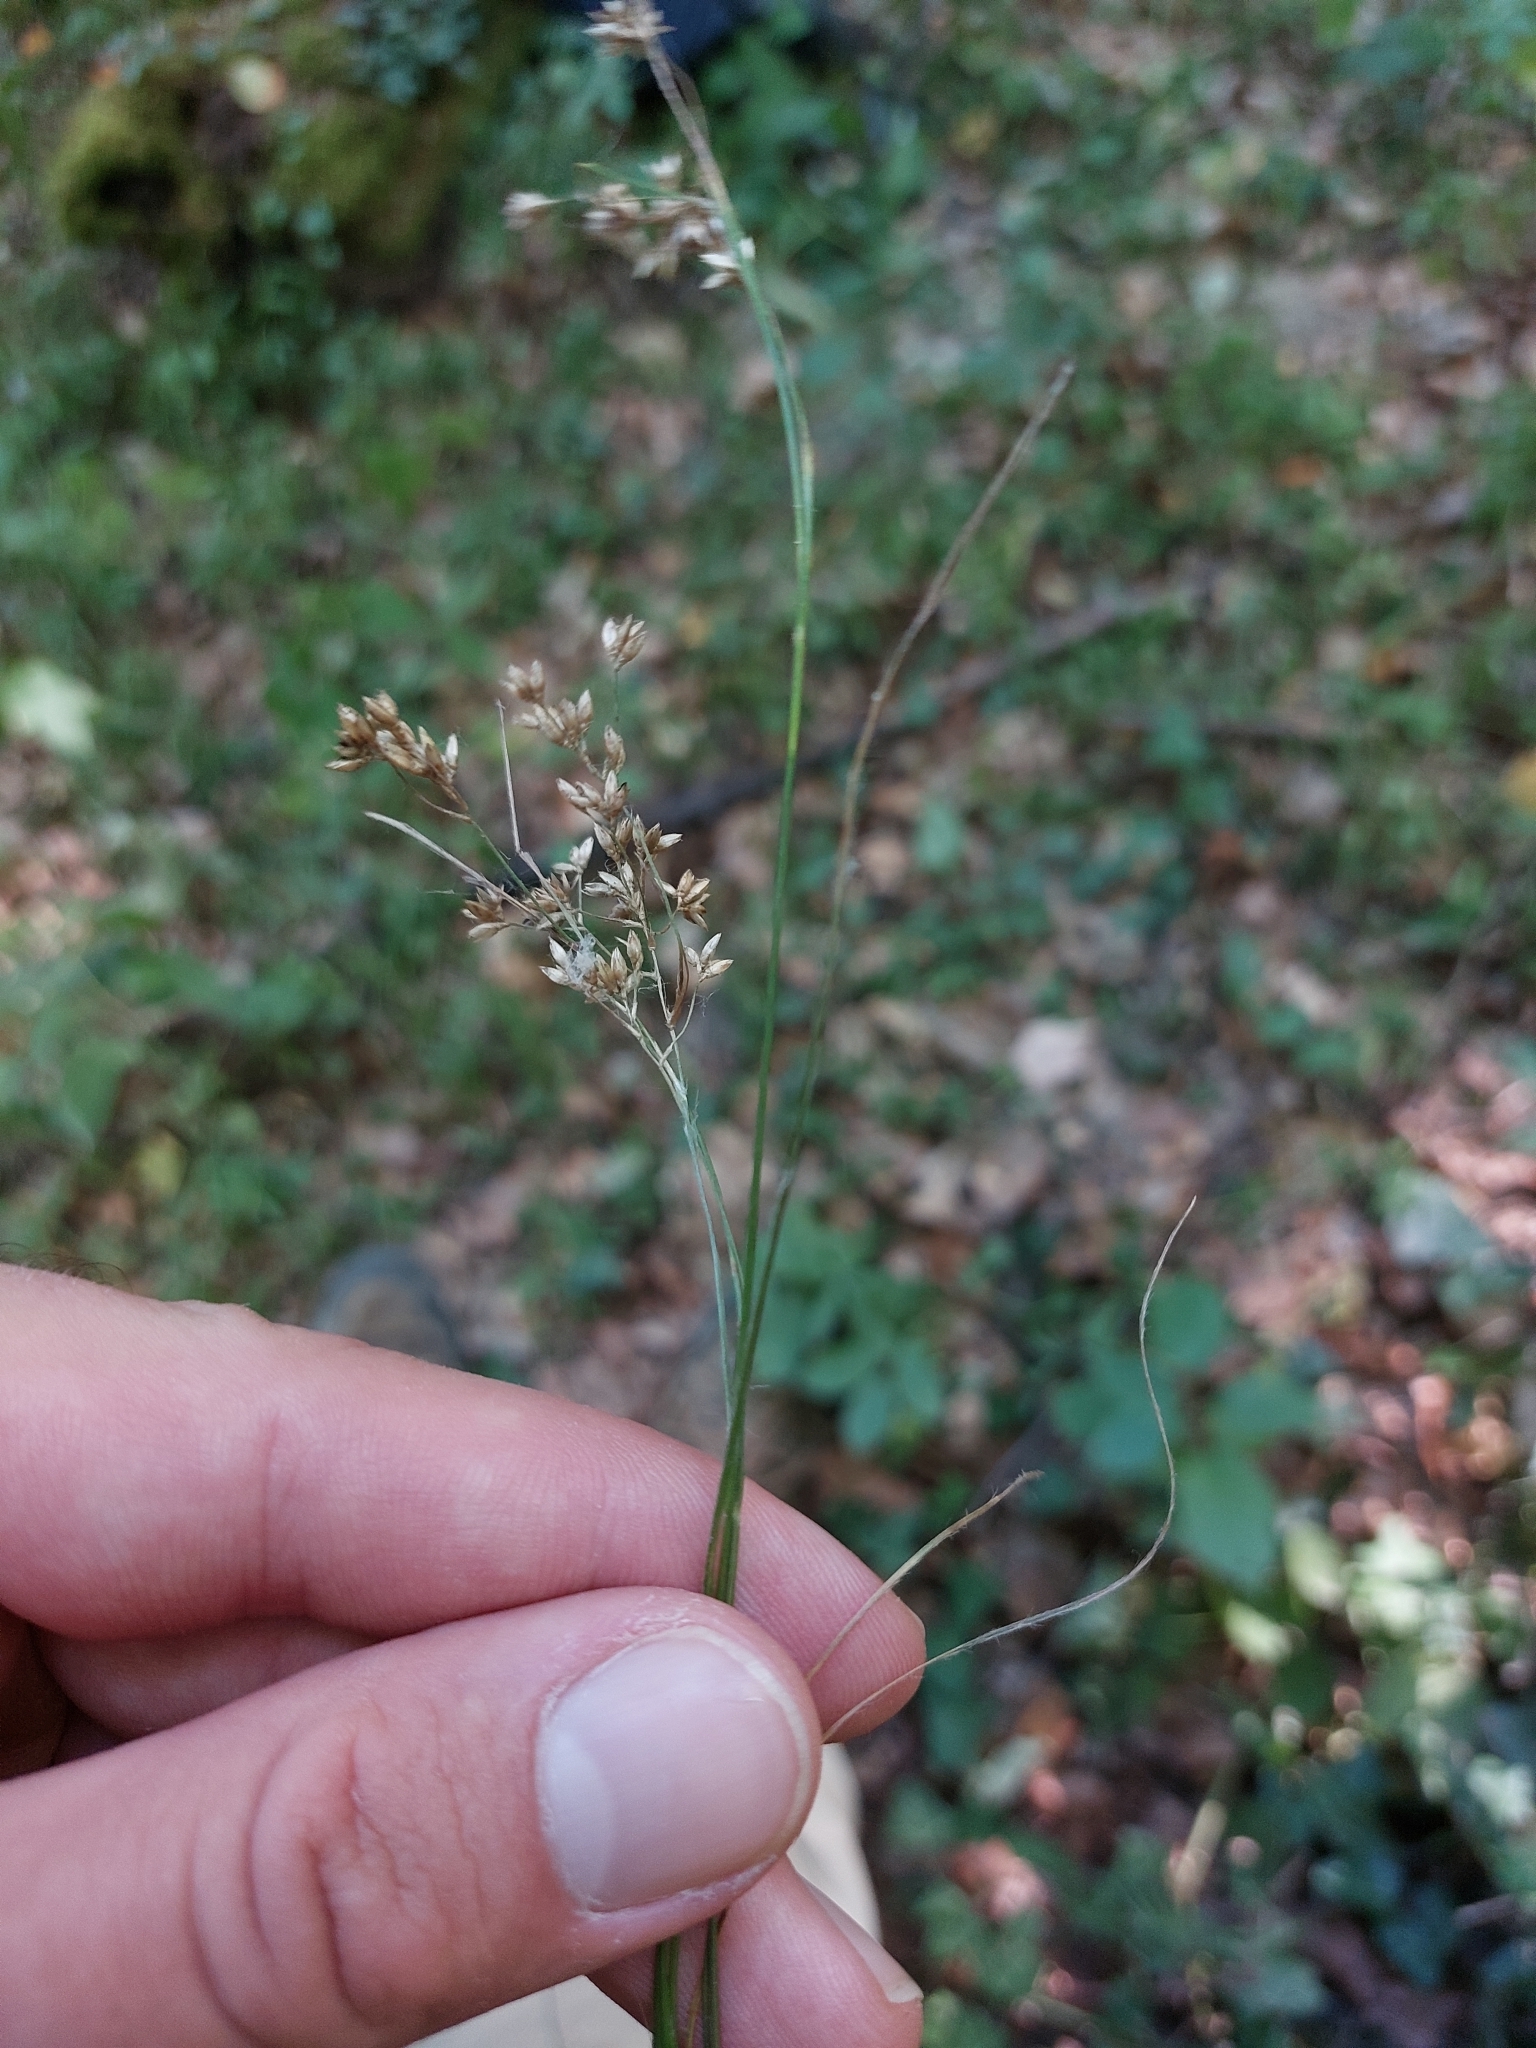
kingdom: Plantae
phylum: Tracheophyta
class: Liliopsida
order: Poales
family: Juncaceae
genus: Luzula
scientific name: Luzula luzuloides
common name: White wood-rush
